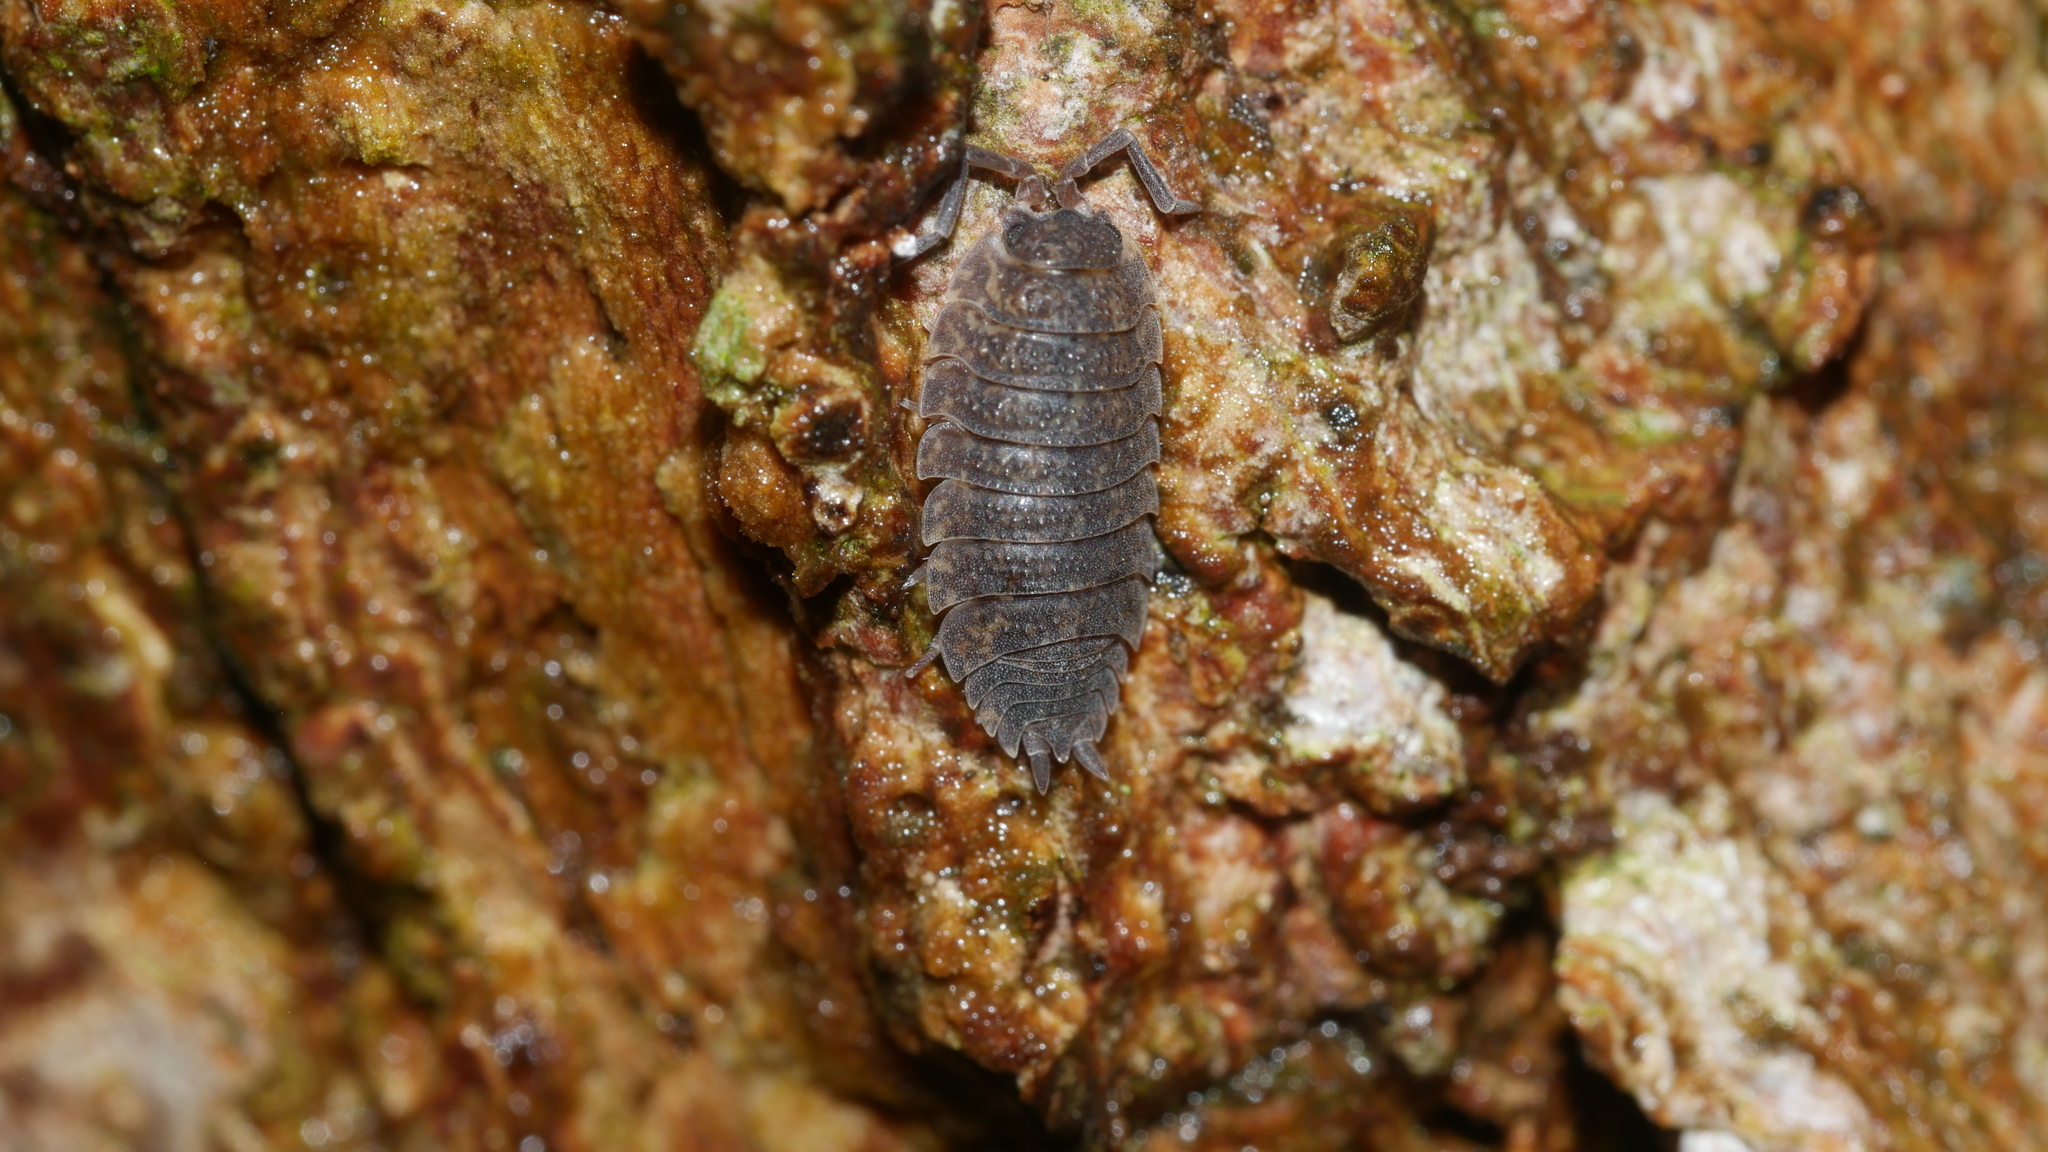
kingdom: Animalia
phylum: Arthropoda
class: Malacostraca
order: Isopoda
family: Porcellionidae
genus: Porcellio
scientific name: Porcellio scaber
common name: Common rough woodlouse
